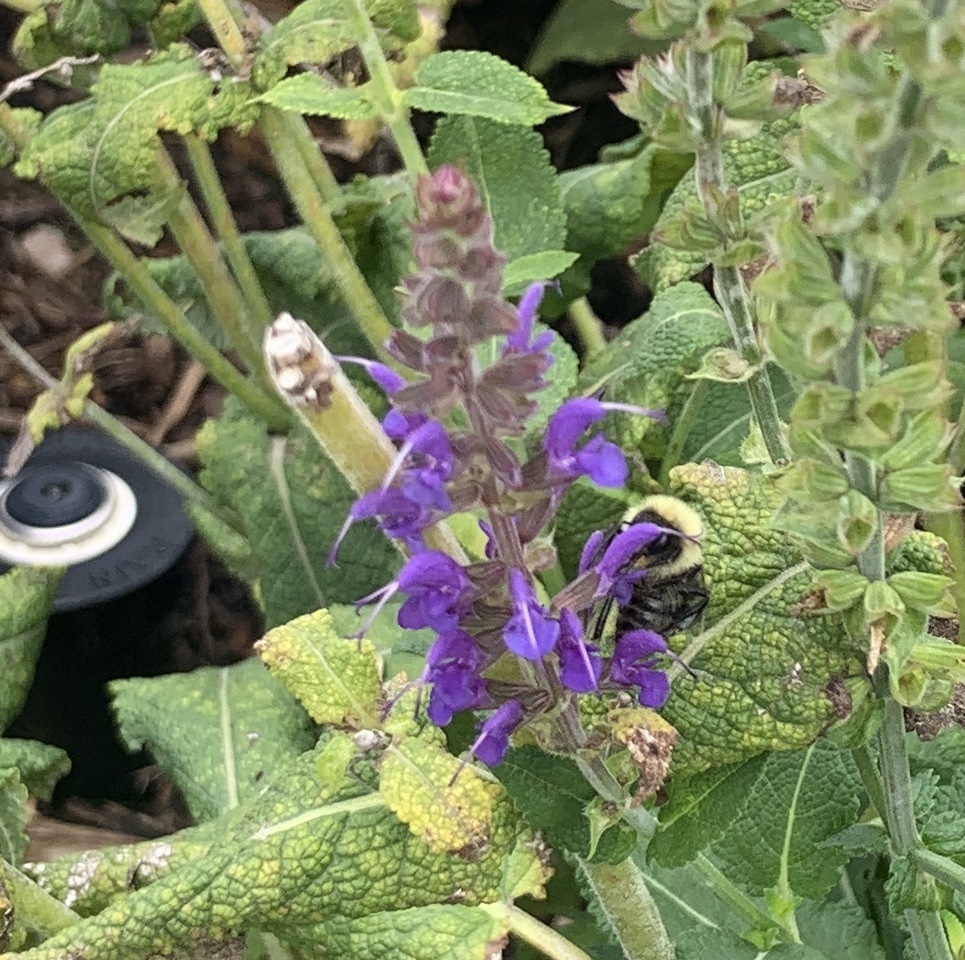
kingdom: Animalia
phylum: Arthropoda
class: Insecta
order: Hymenoptera
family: Apidae
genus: Bombus
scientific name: Bombus
